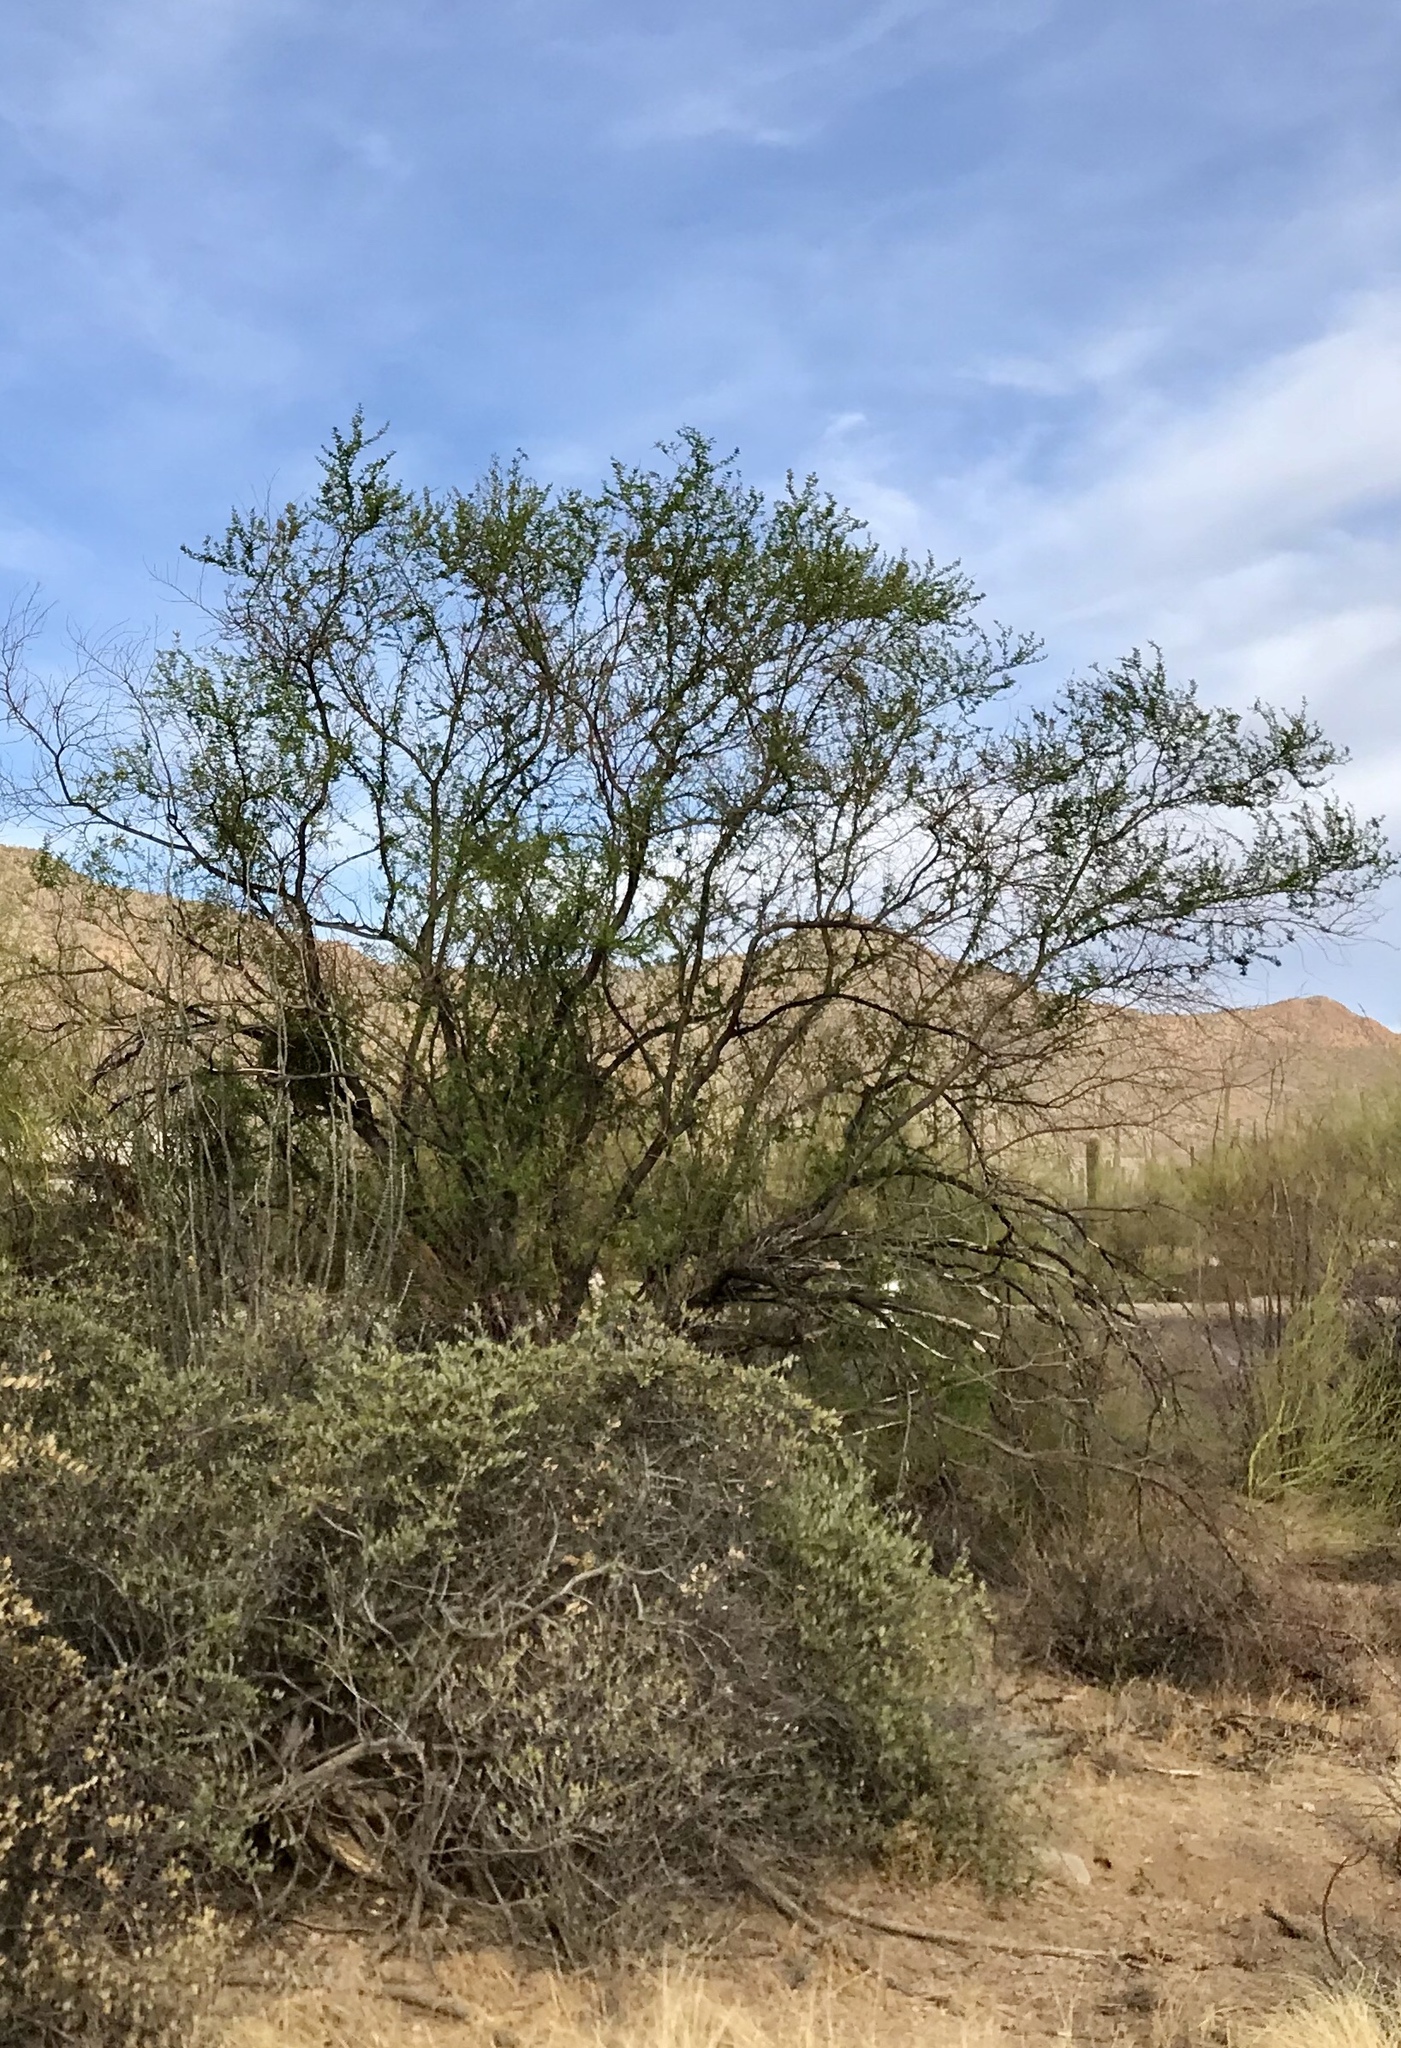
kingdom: Plantae
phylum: Tracheophyta
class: Magnoliopsida
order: Zygophyllales
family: Zygophyllaceae
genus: Larrea
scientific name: Larrea tridentata
